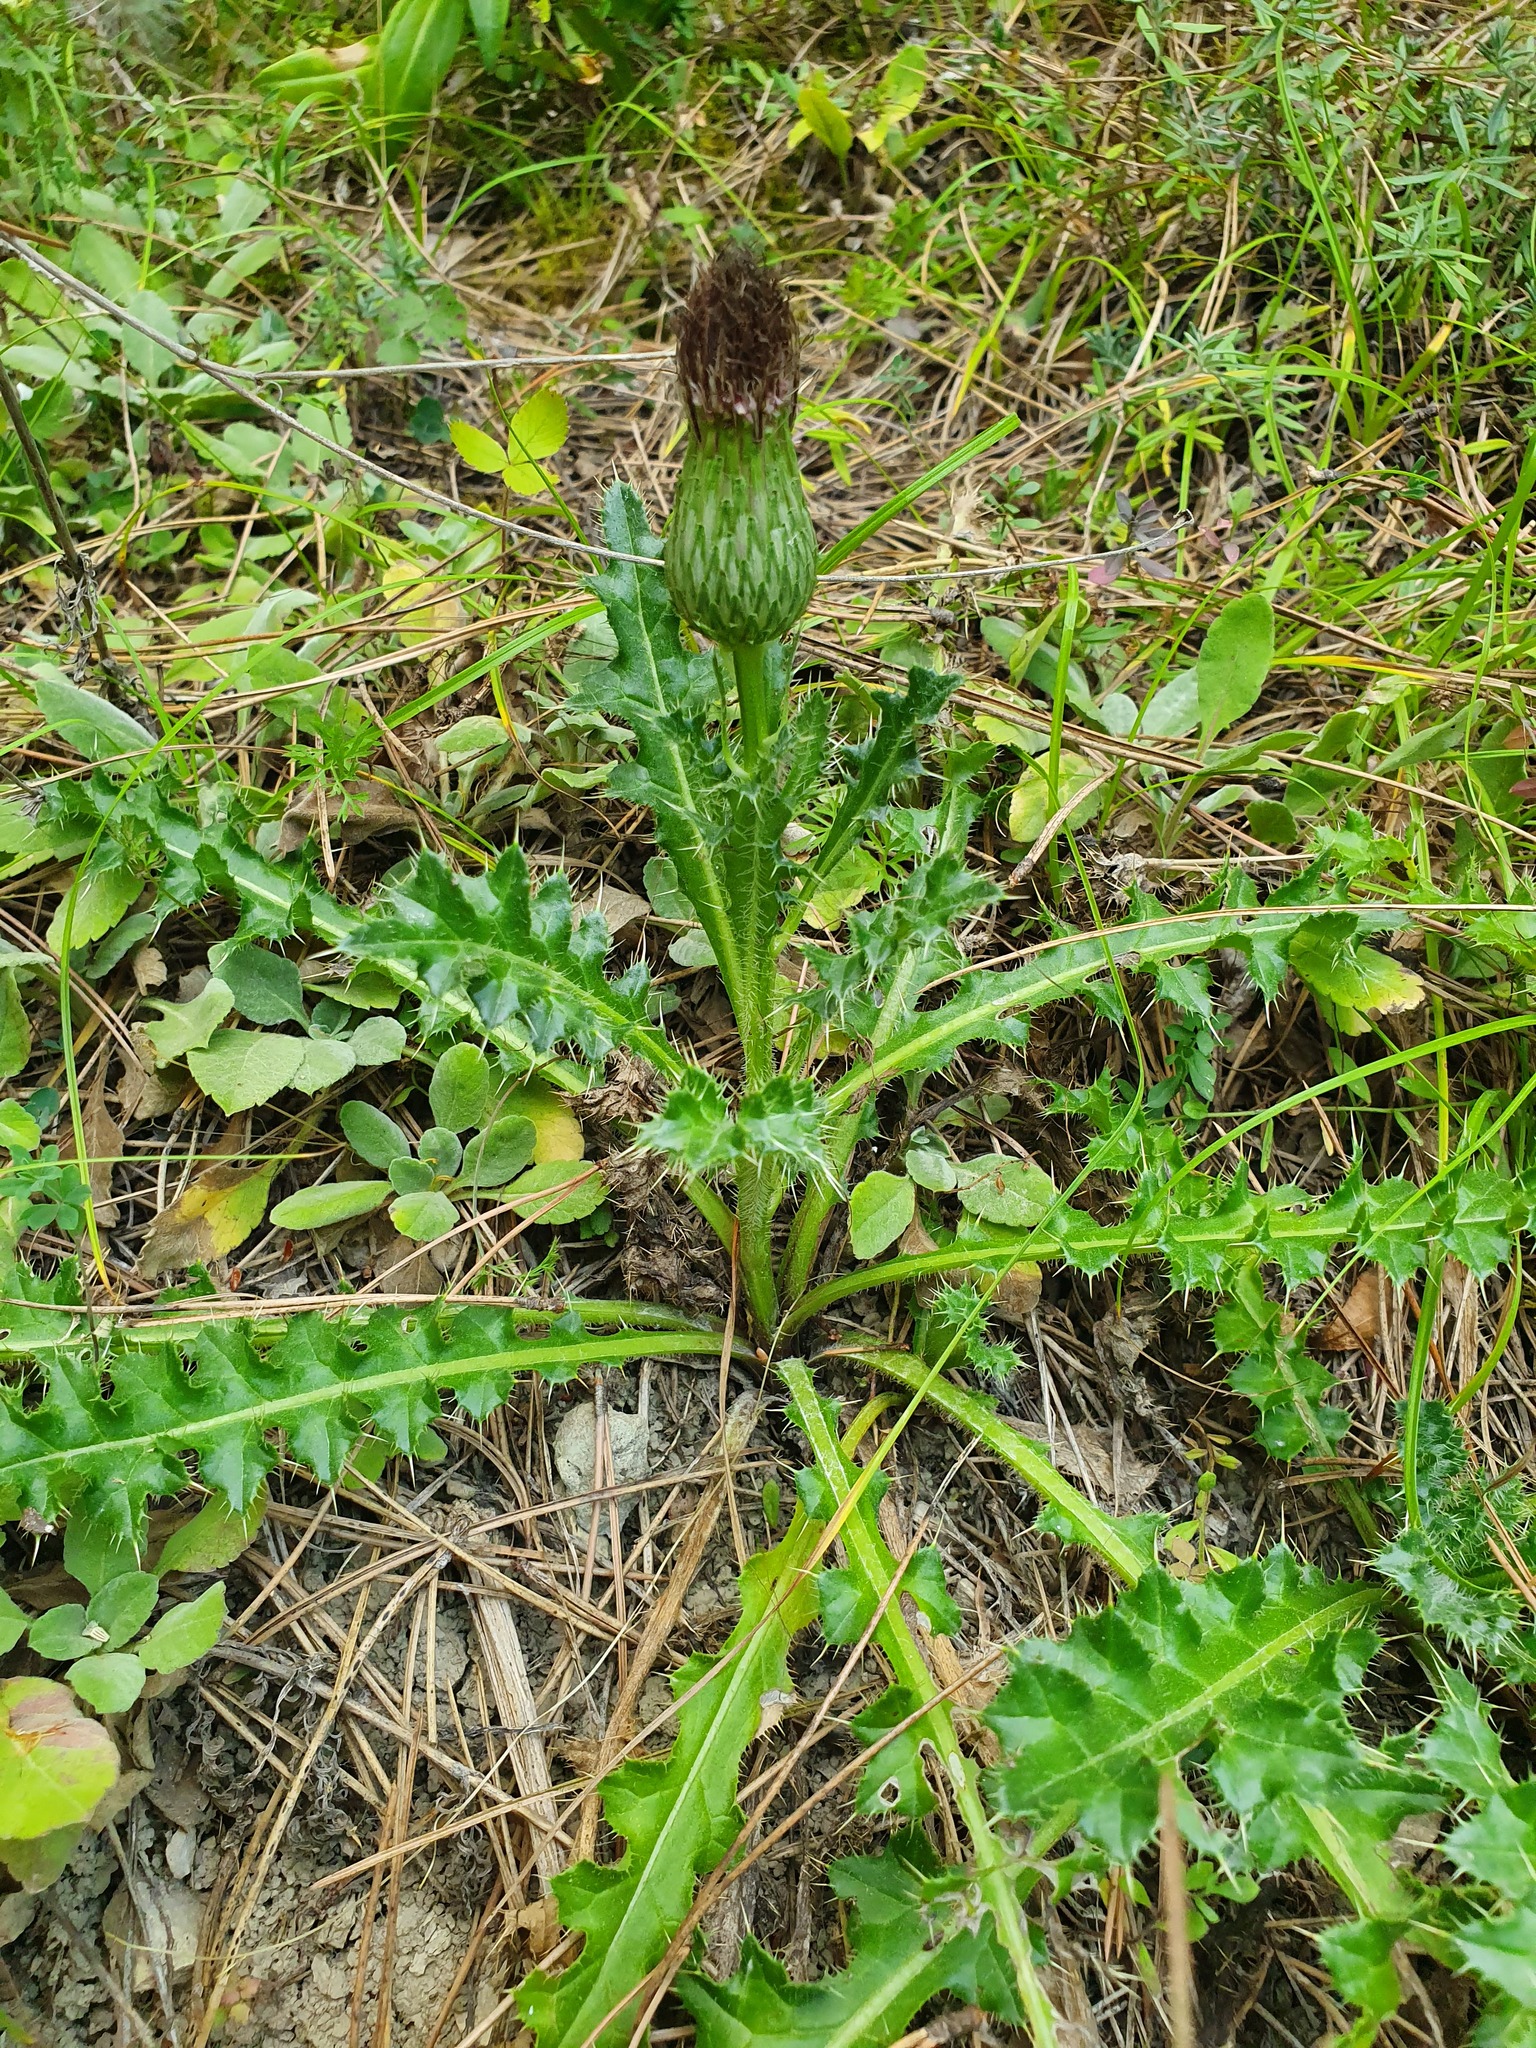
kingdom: Plantae
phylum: Tracheophyta
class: Magnoliopsida
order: Asterales
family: Asteraceae
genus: Cirsium
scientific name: Cirsium acaulon
